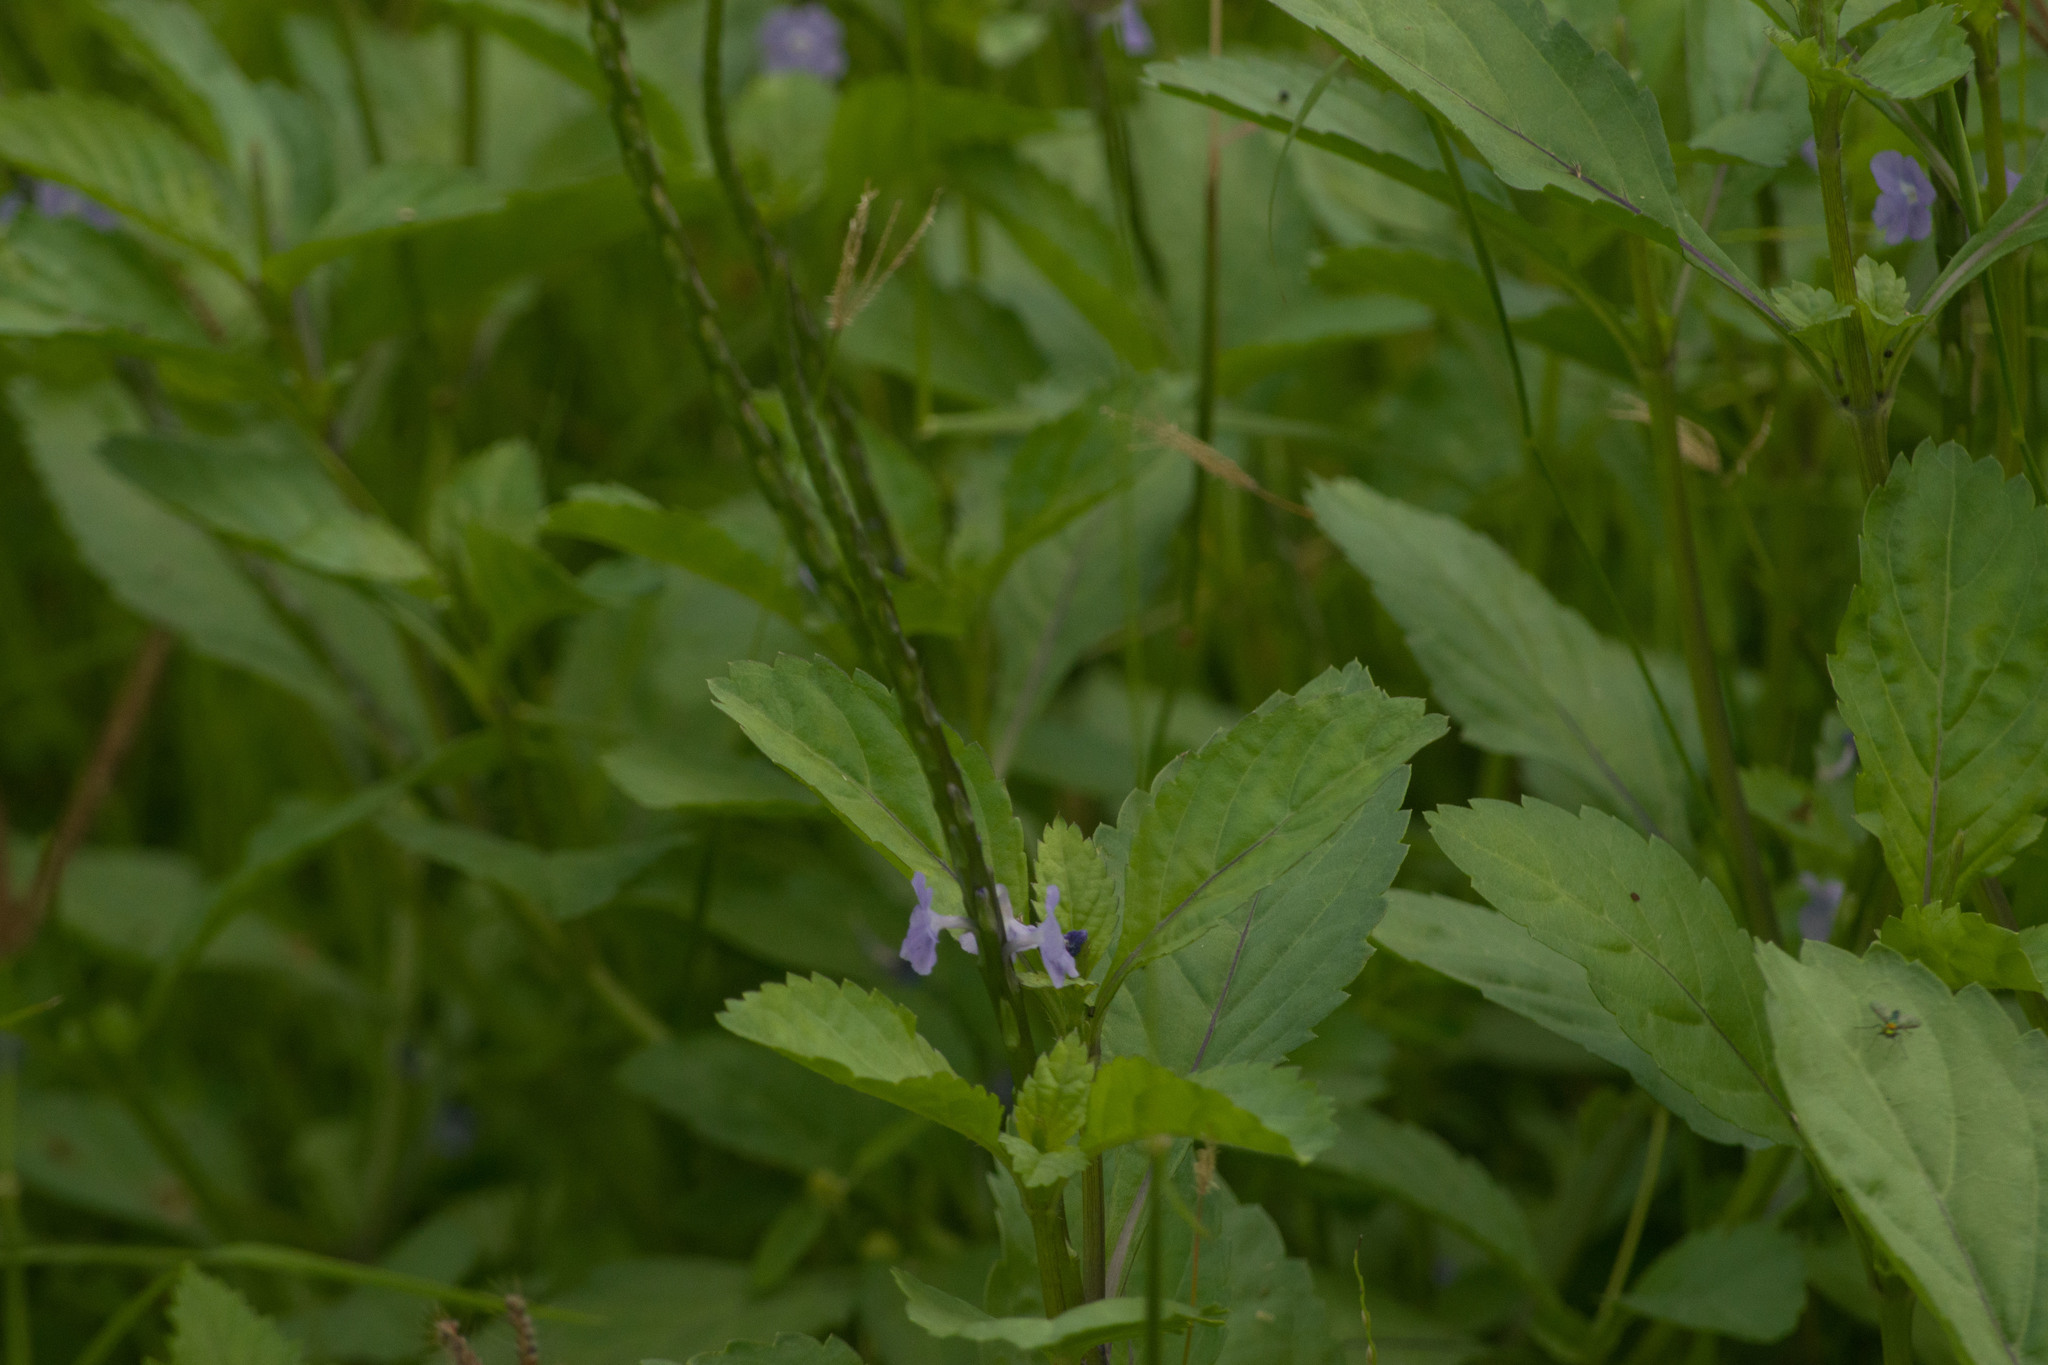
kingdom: Plantae
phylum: Tracheophyta
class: Magnoliopsida
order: Lamiales
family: Verbenaceae
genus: Stachytarpheta
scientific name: Stachytarpheta jamaicensis
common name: Light-blue snakeweed
